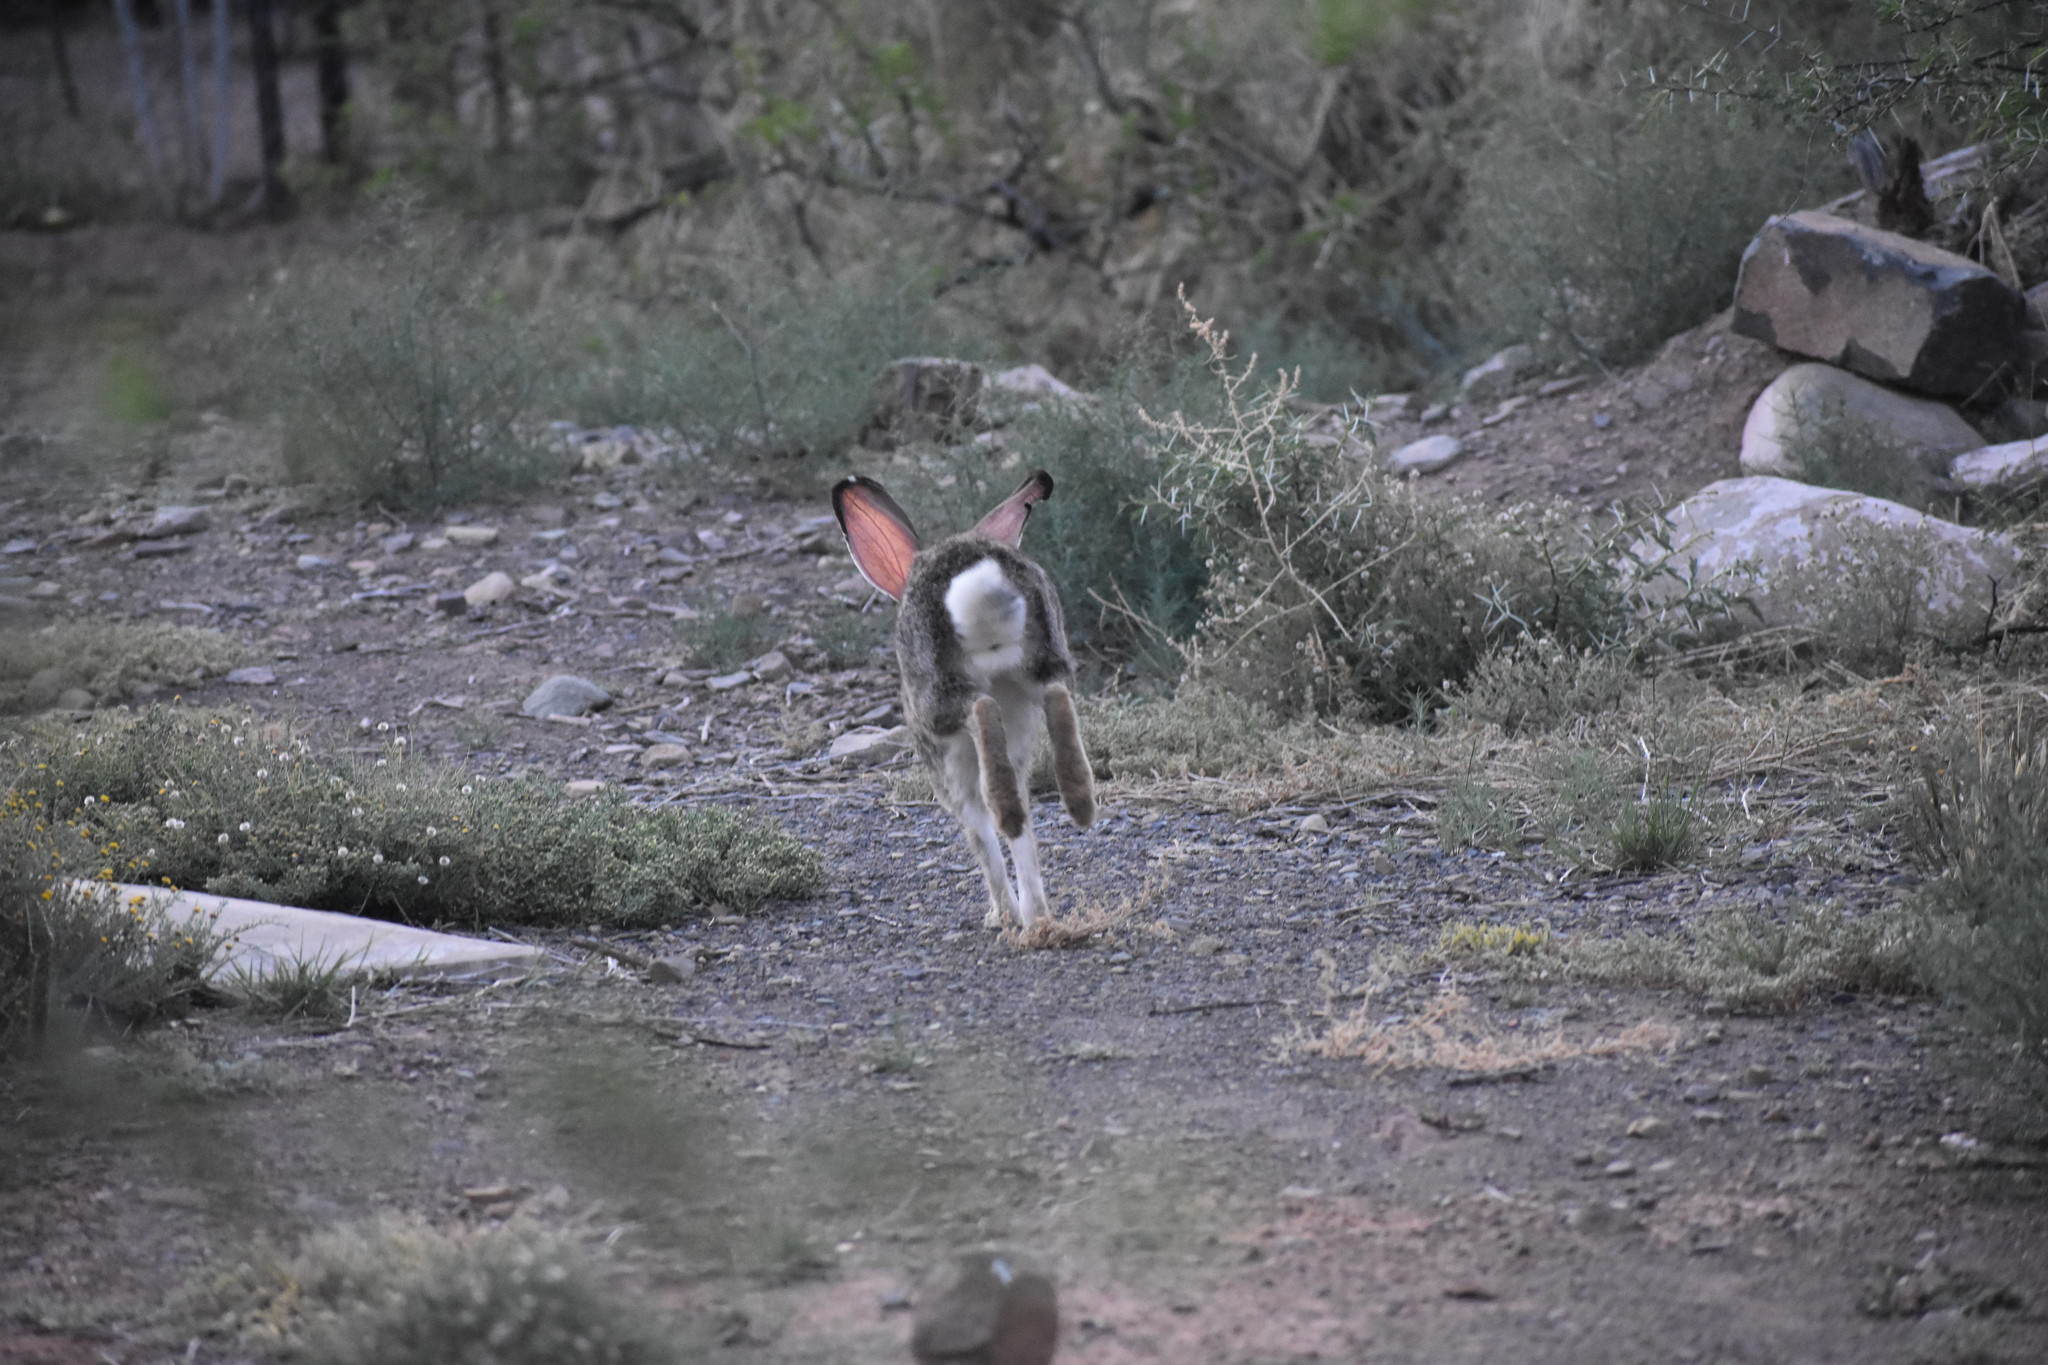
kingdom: Animalia
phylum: Chordata
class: Mammalia
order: Lagomorpha
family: Leporidae
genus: Lepus
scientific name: Lepus saxatilis
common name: Scrub hare
